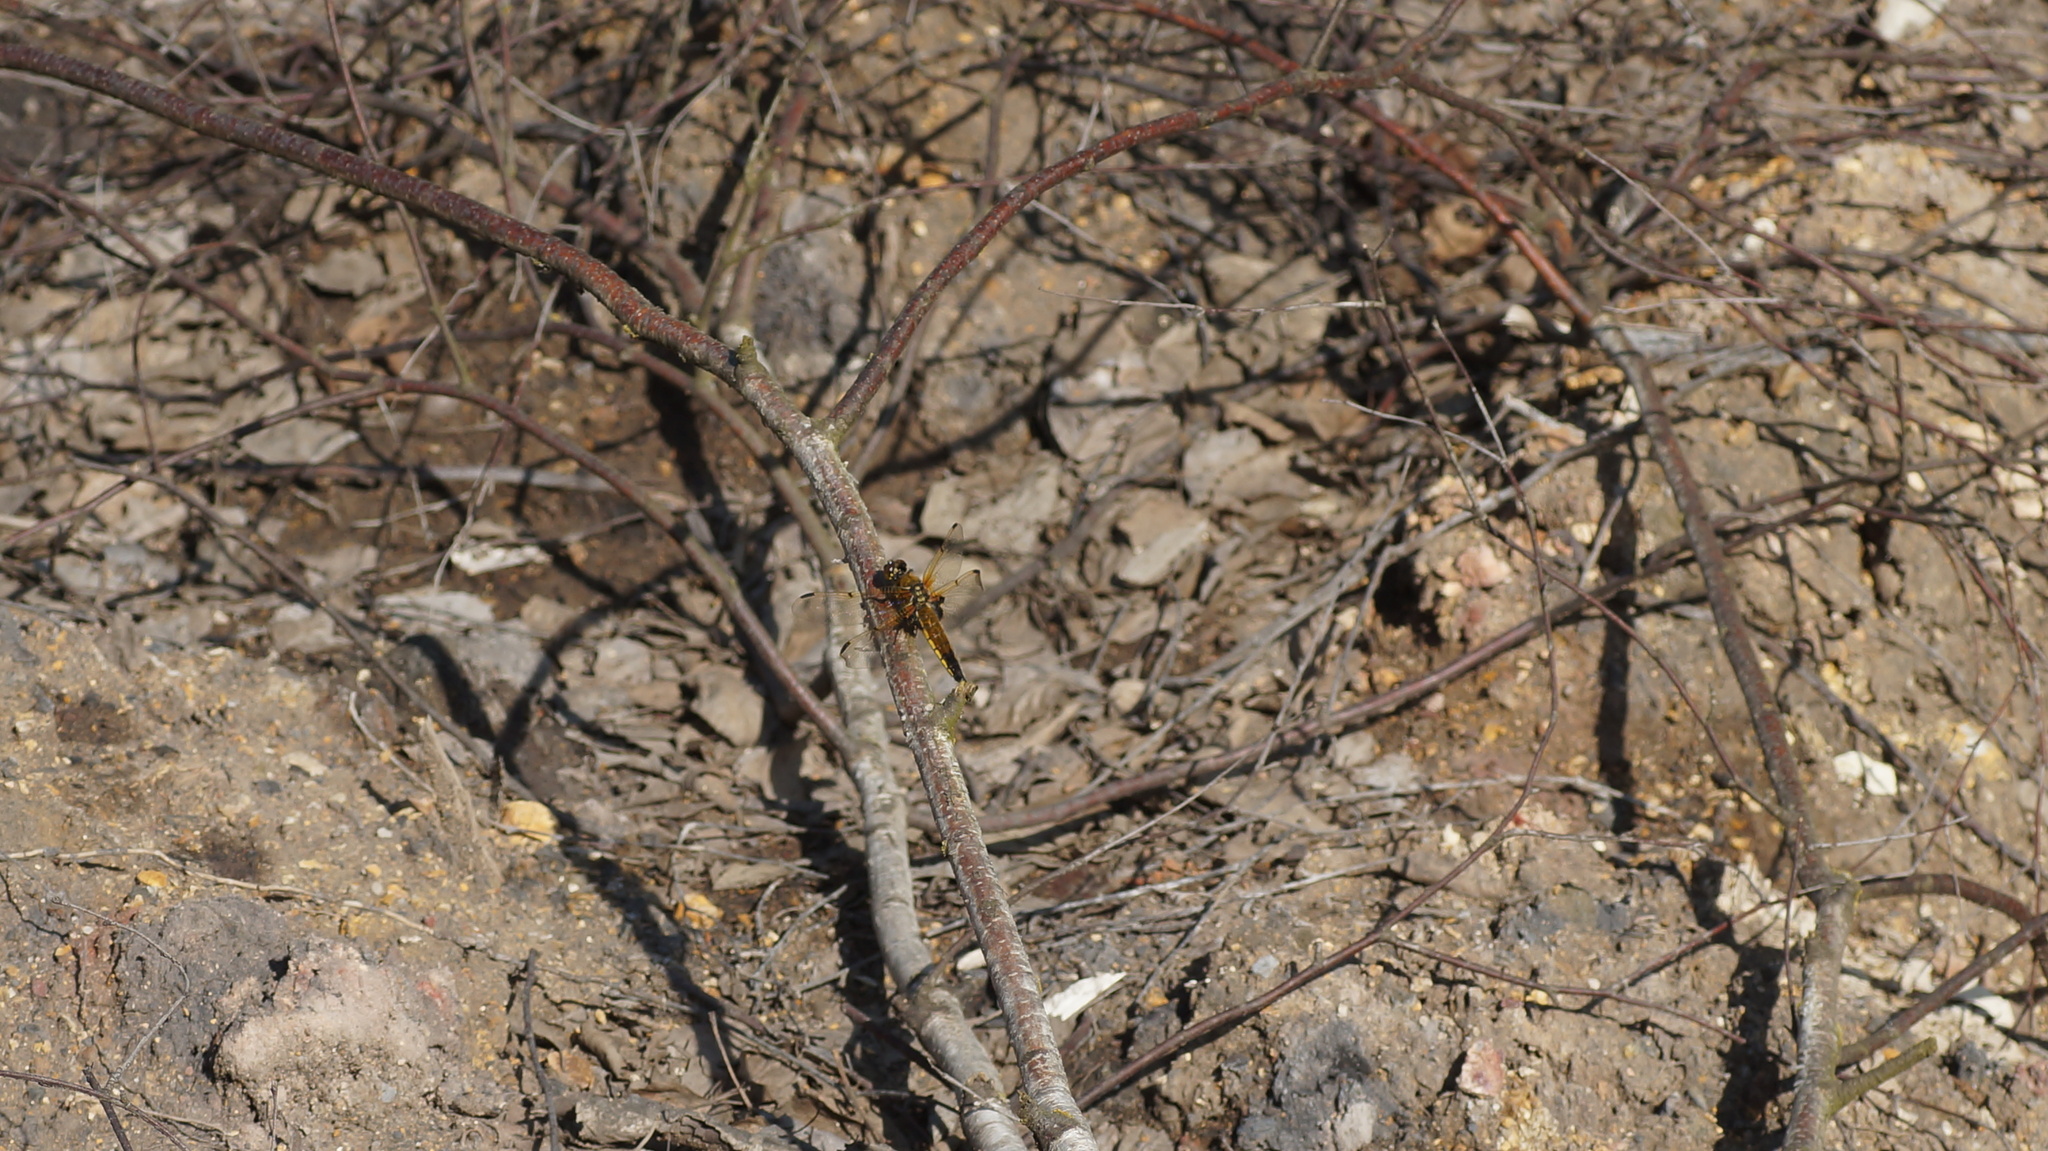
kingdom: Animalia
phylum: Arthropoda
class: Insecta
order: Odonata
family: Libellulidae
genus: Libellula
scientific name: Libellula quadrimaculata
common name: Four-spotted chaser
